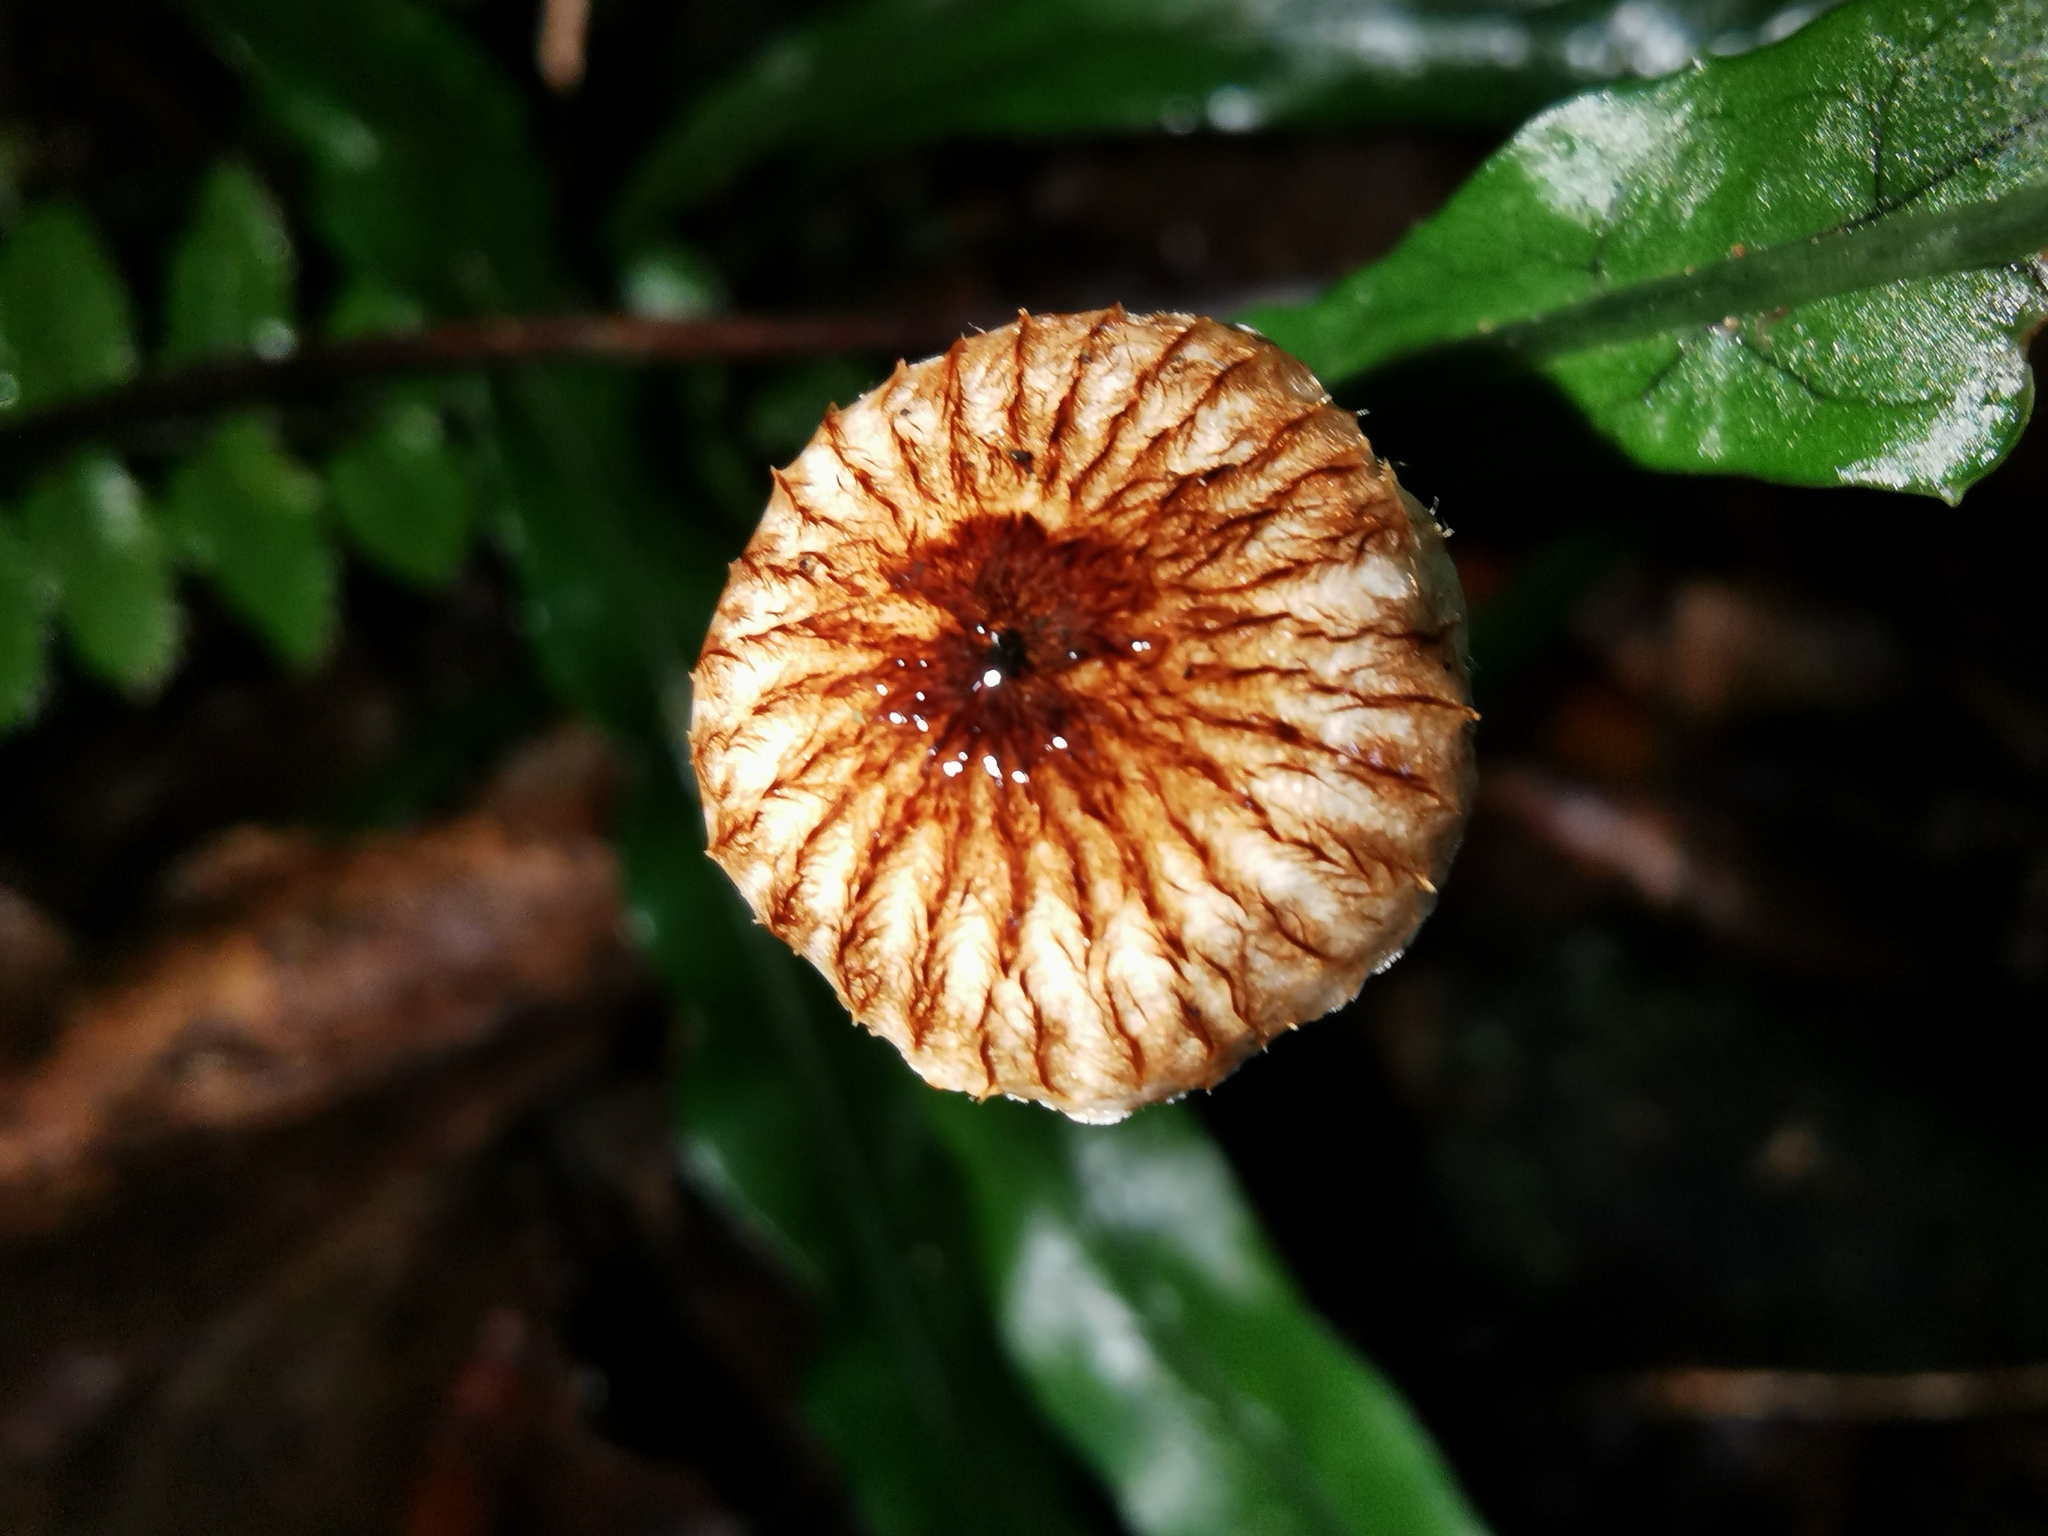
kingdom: Fungi
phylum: Basidiomycota
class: Agaricomycetes
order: Agaricales
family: Marasmiaceae
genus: Crinipellis
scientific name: Crinipellis procera
